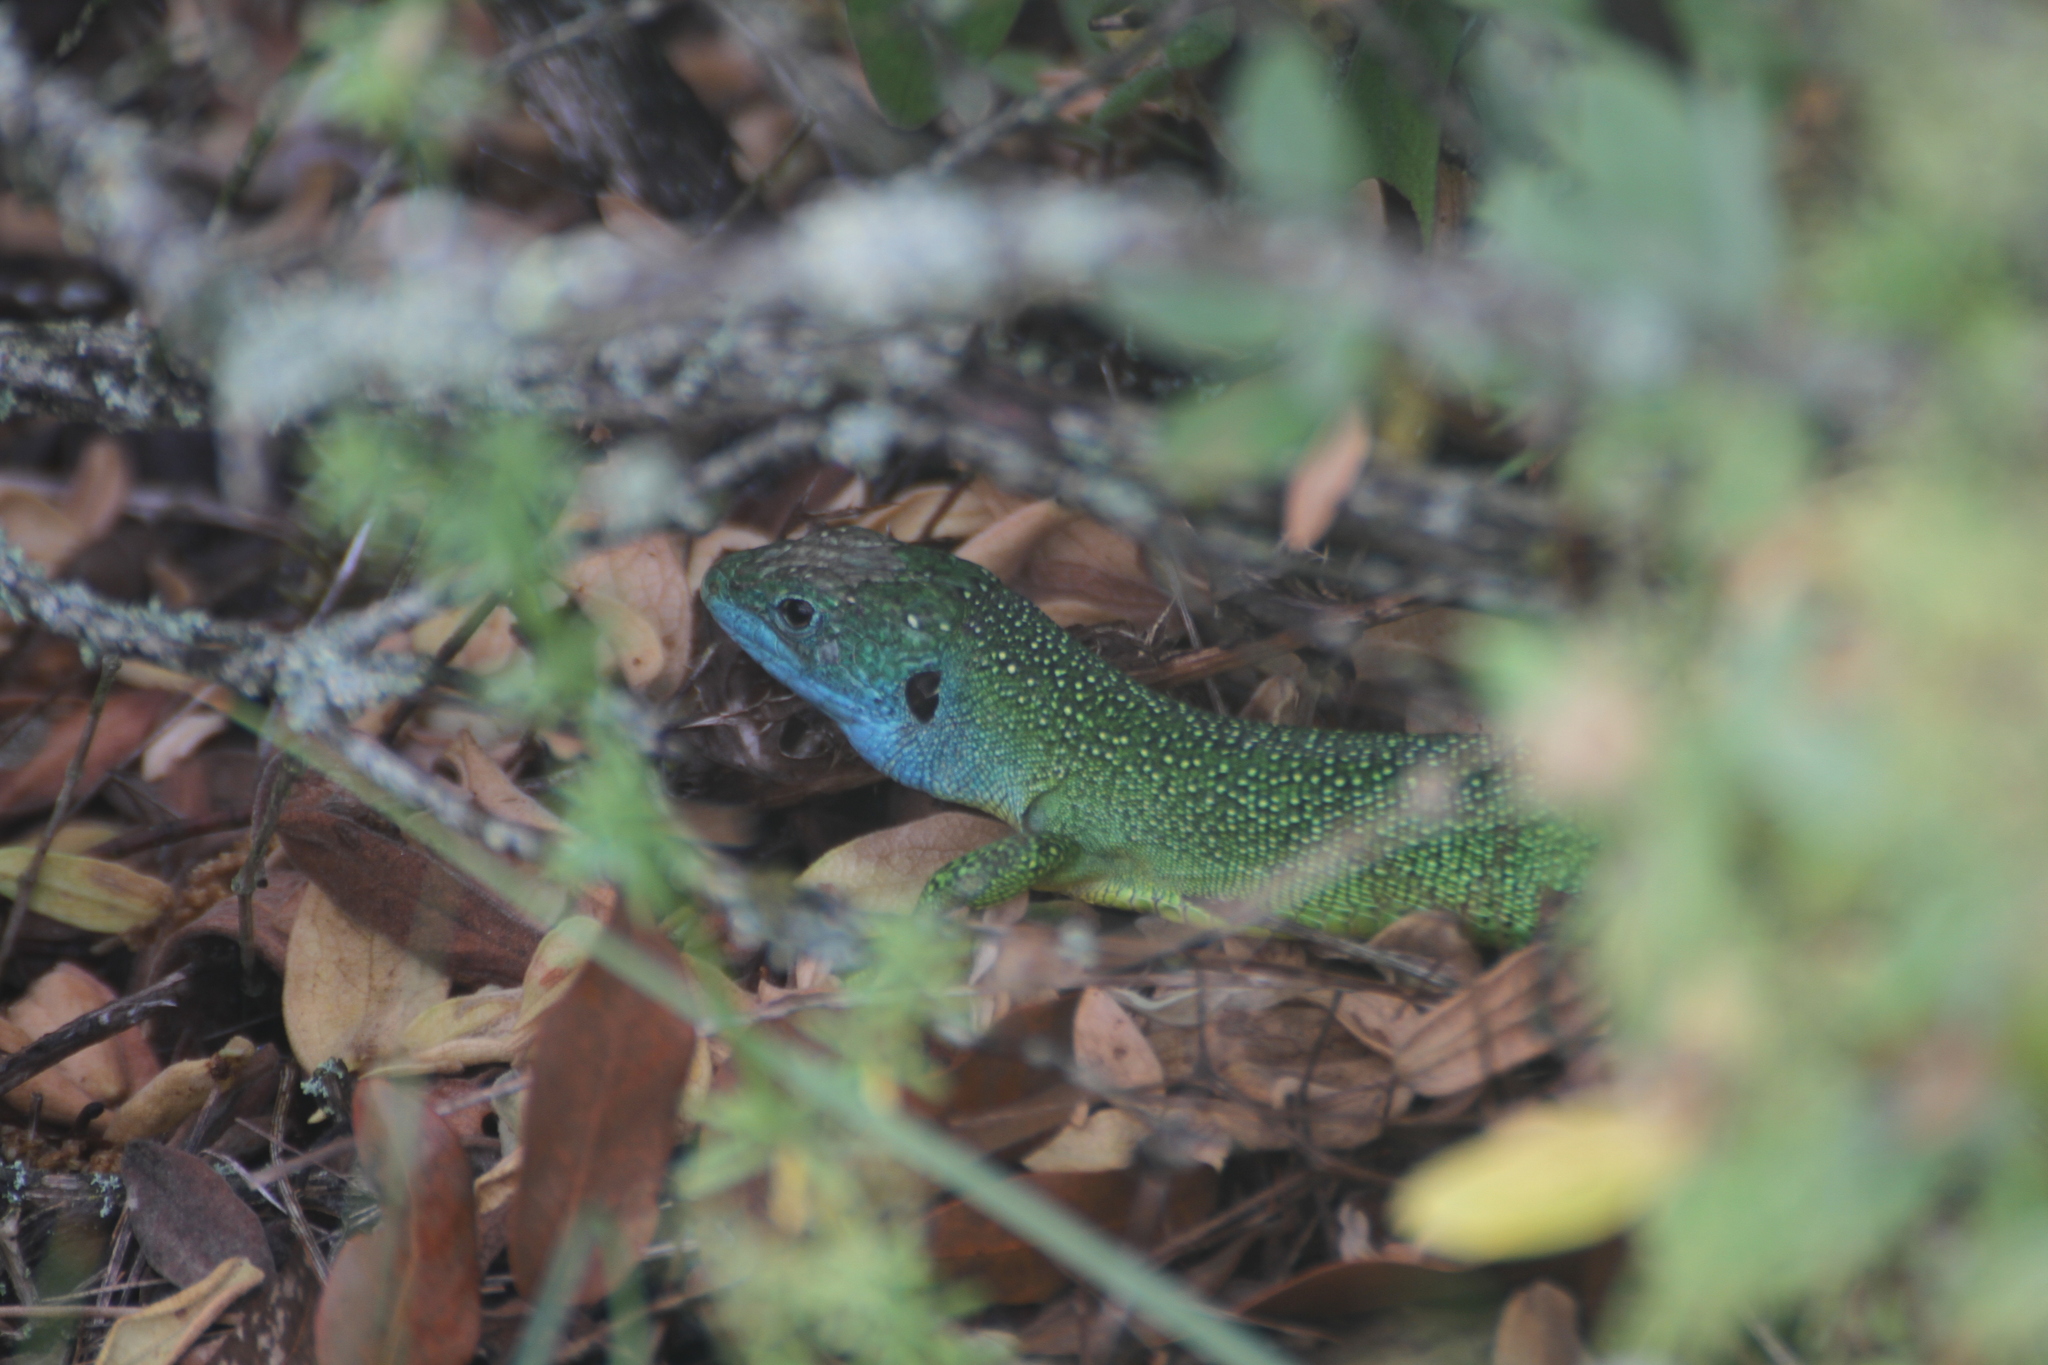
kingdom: Animalia
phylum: Chordata
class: Squamata
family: Lacertidae
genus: Lacerta
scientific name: Lacerta bilineata
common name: Western green lizard
